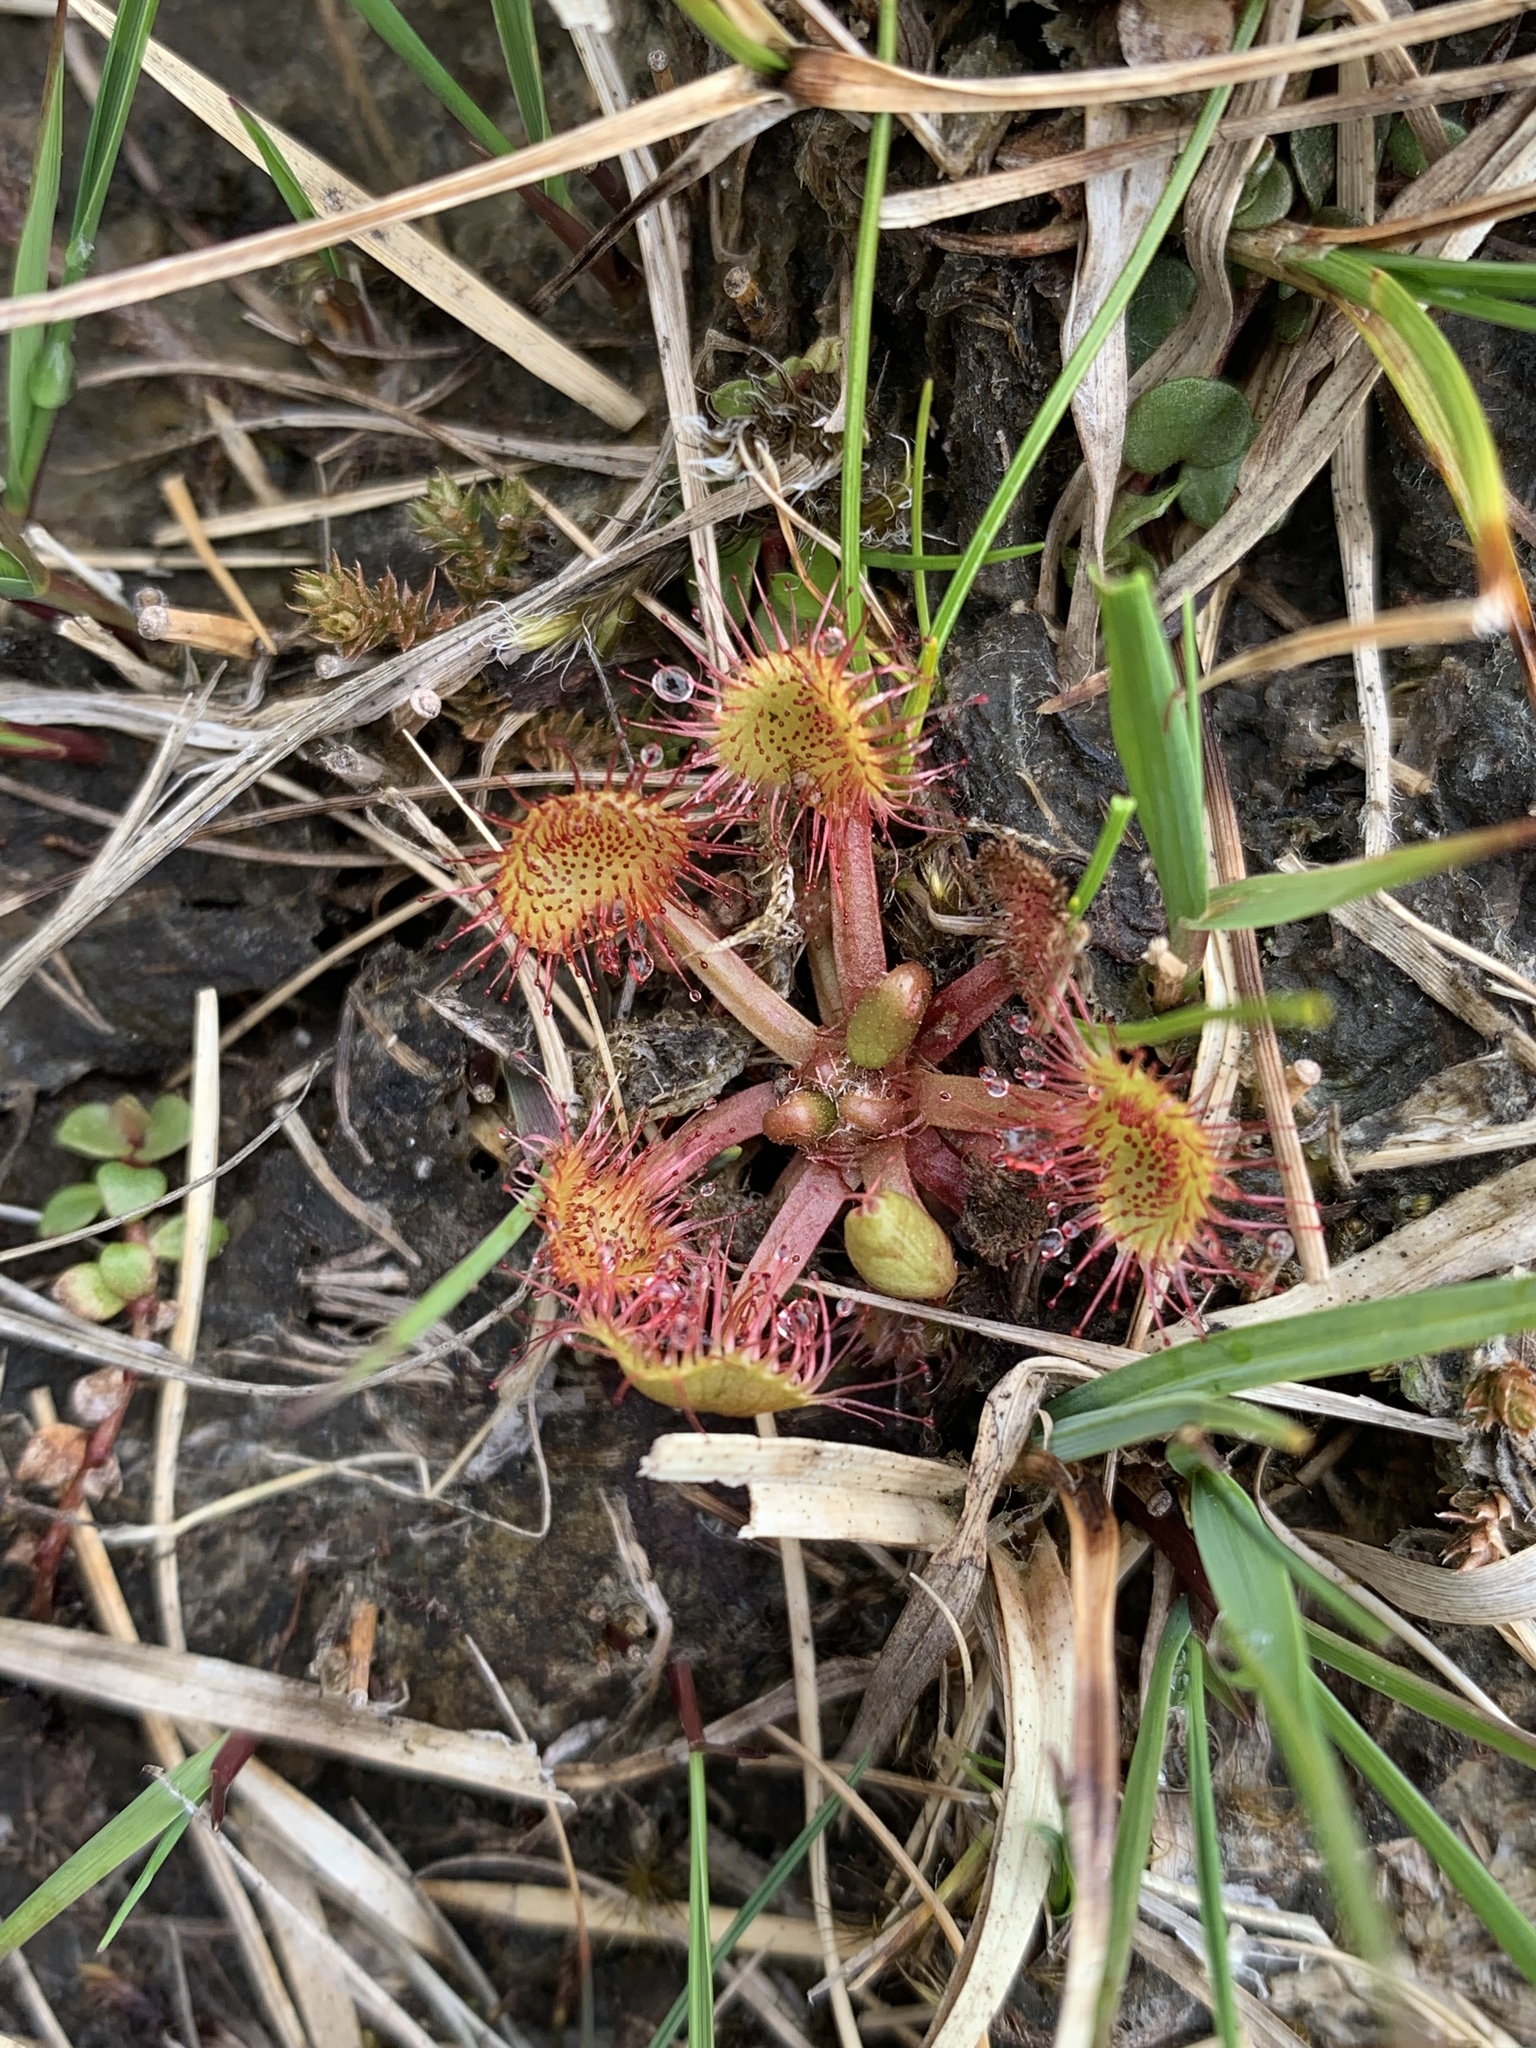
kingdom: Plantae
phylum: Tracheophyta
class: Magnoliopsida
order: Caryophyllales
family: Droseraceae
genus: Drosera
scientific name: Drosera rotundifolia
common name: Round-leaved sundew
